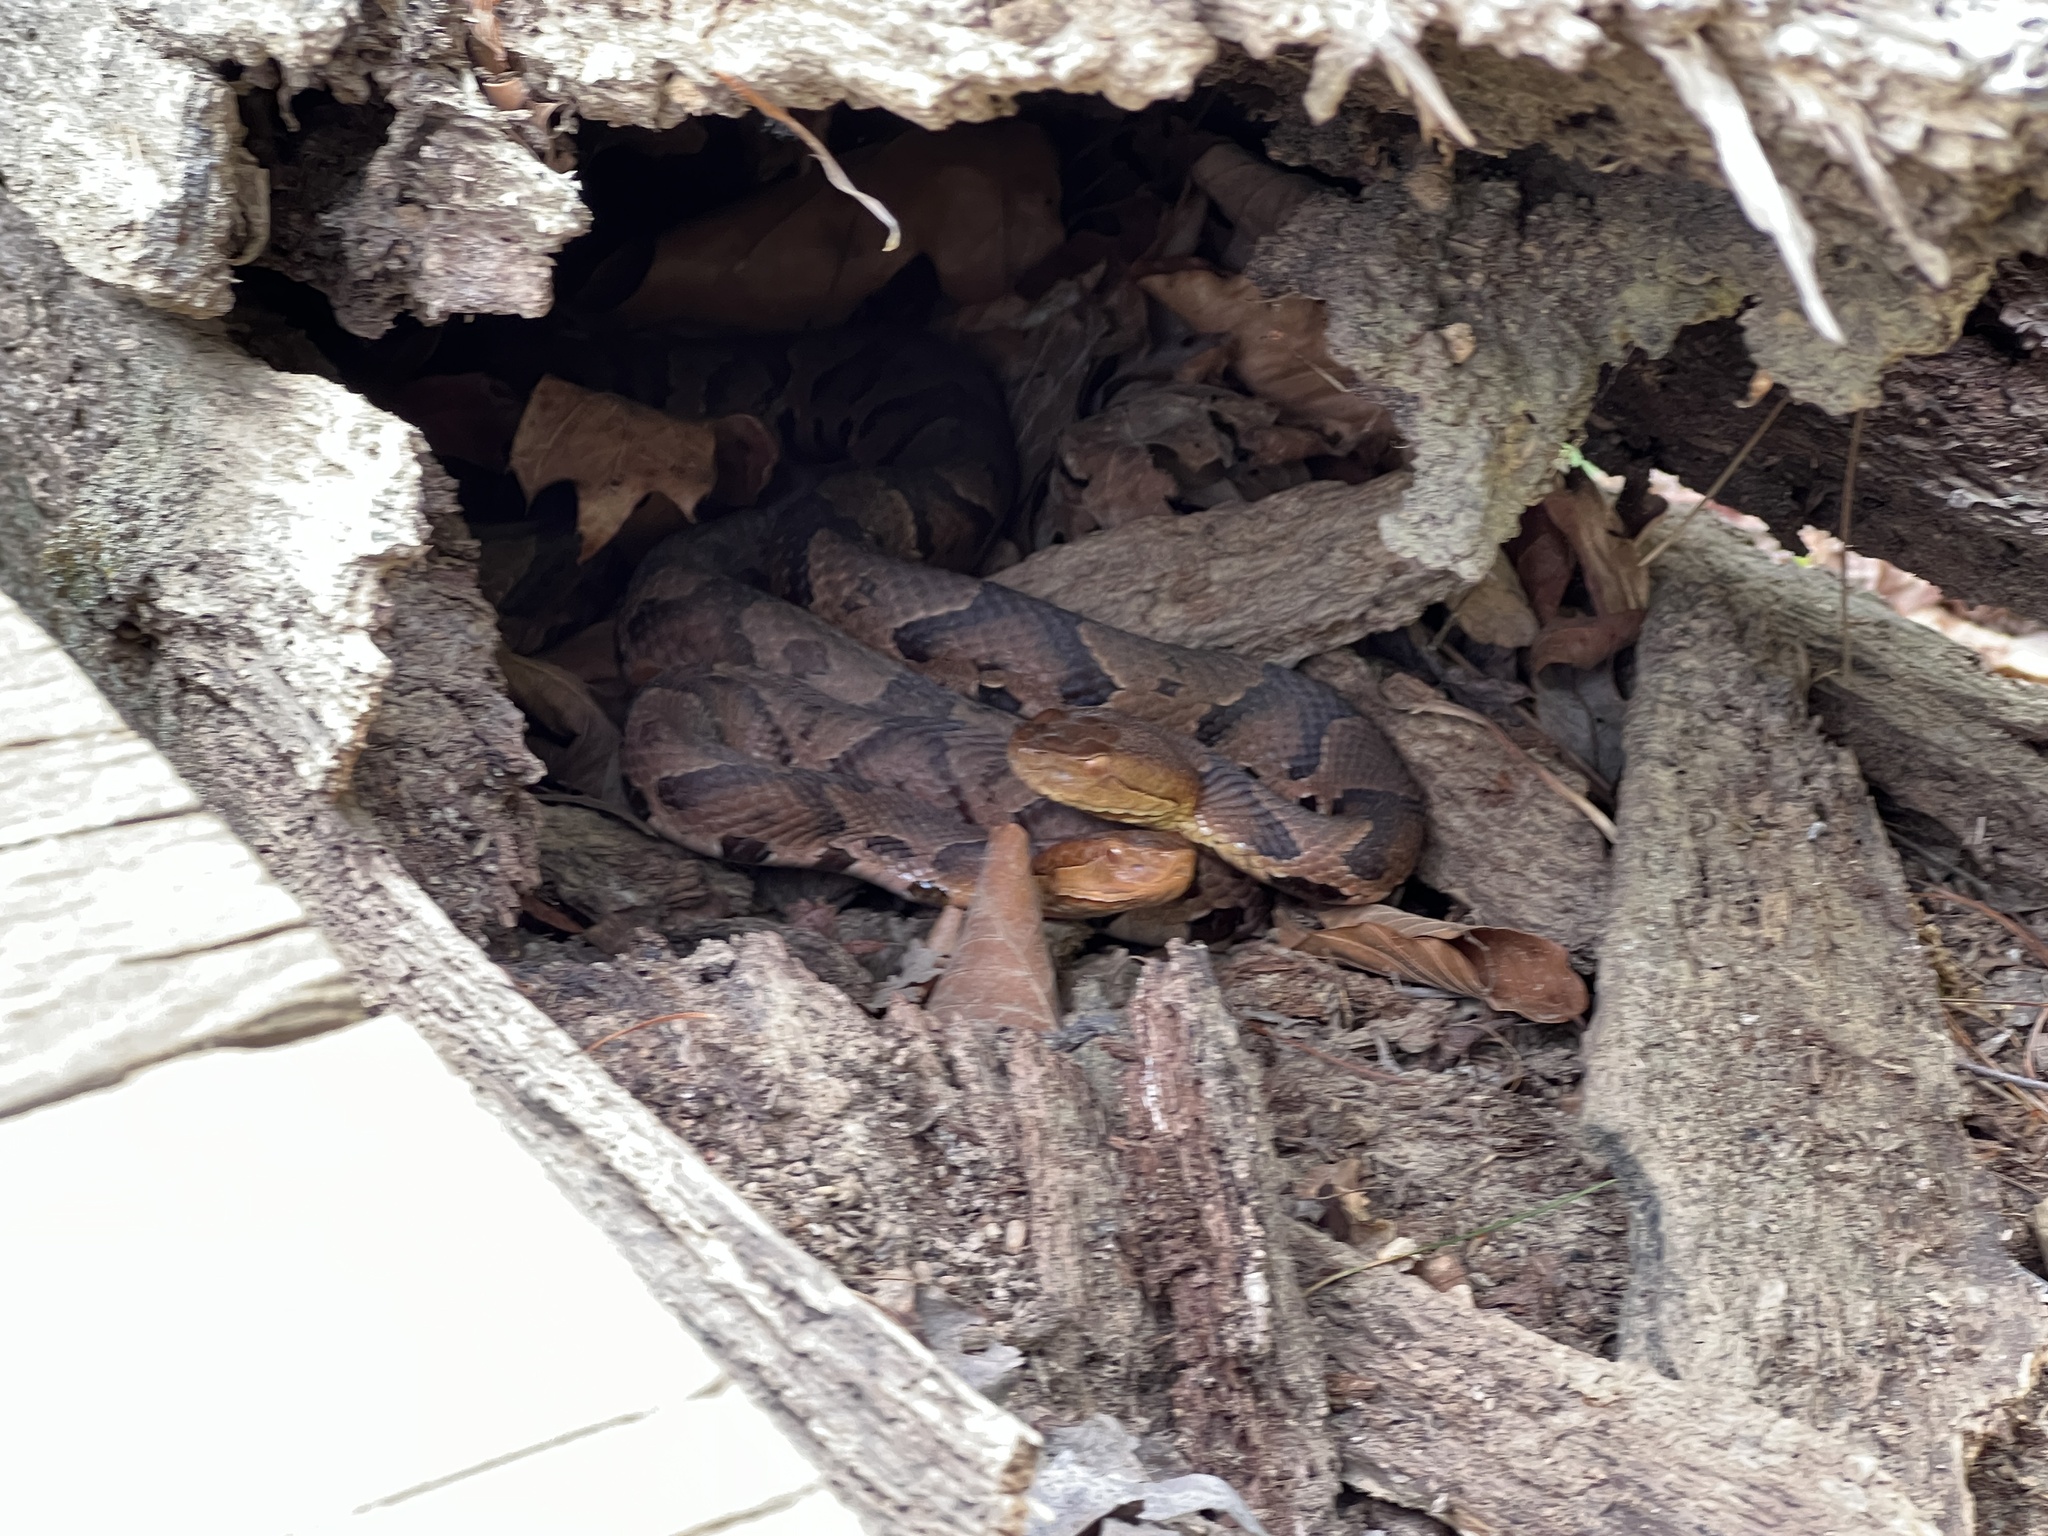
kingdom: Animalia
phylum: Chordata
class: Squamata
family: Viperidae
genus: Agkistrodon
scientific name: Agkistrodon contortrix
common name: Northern copperhead
